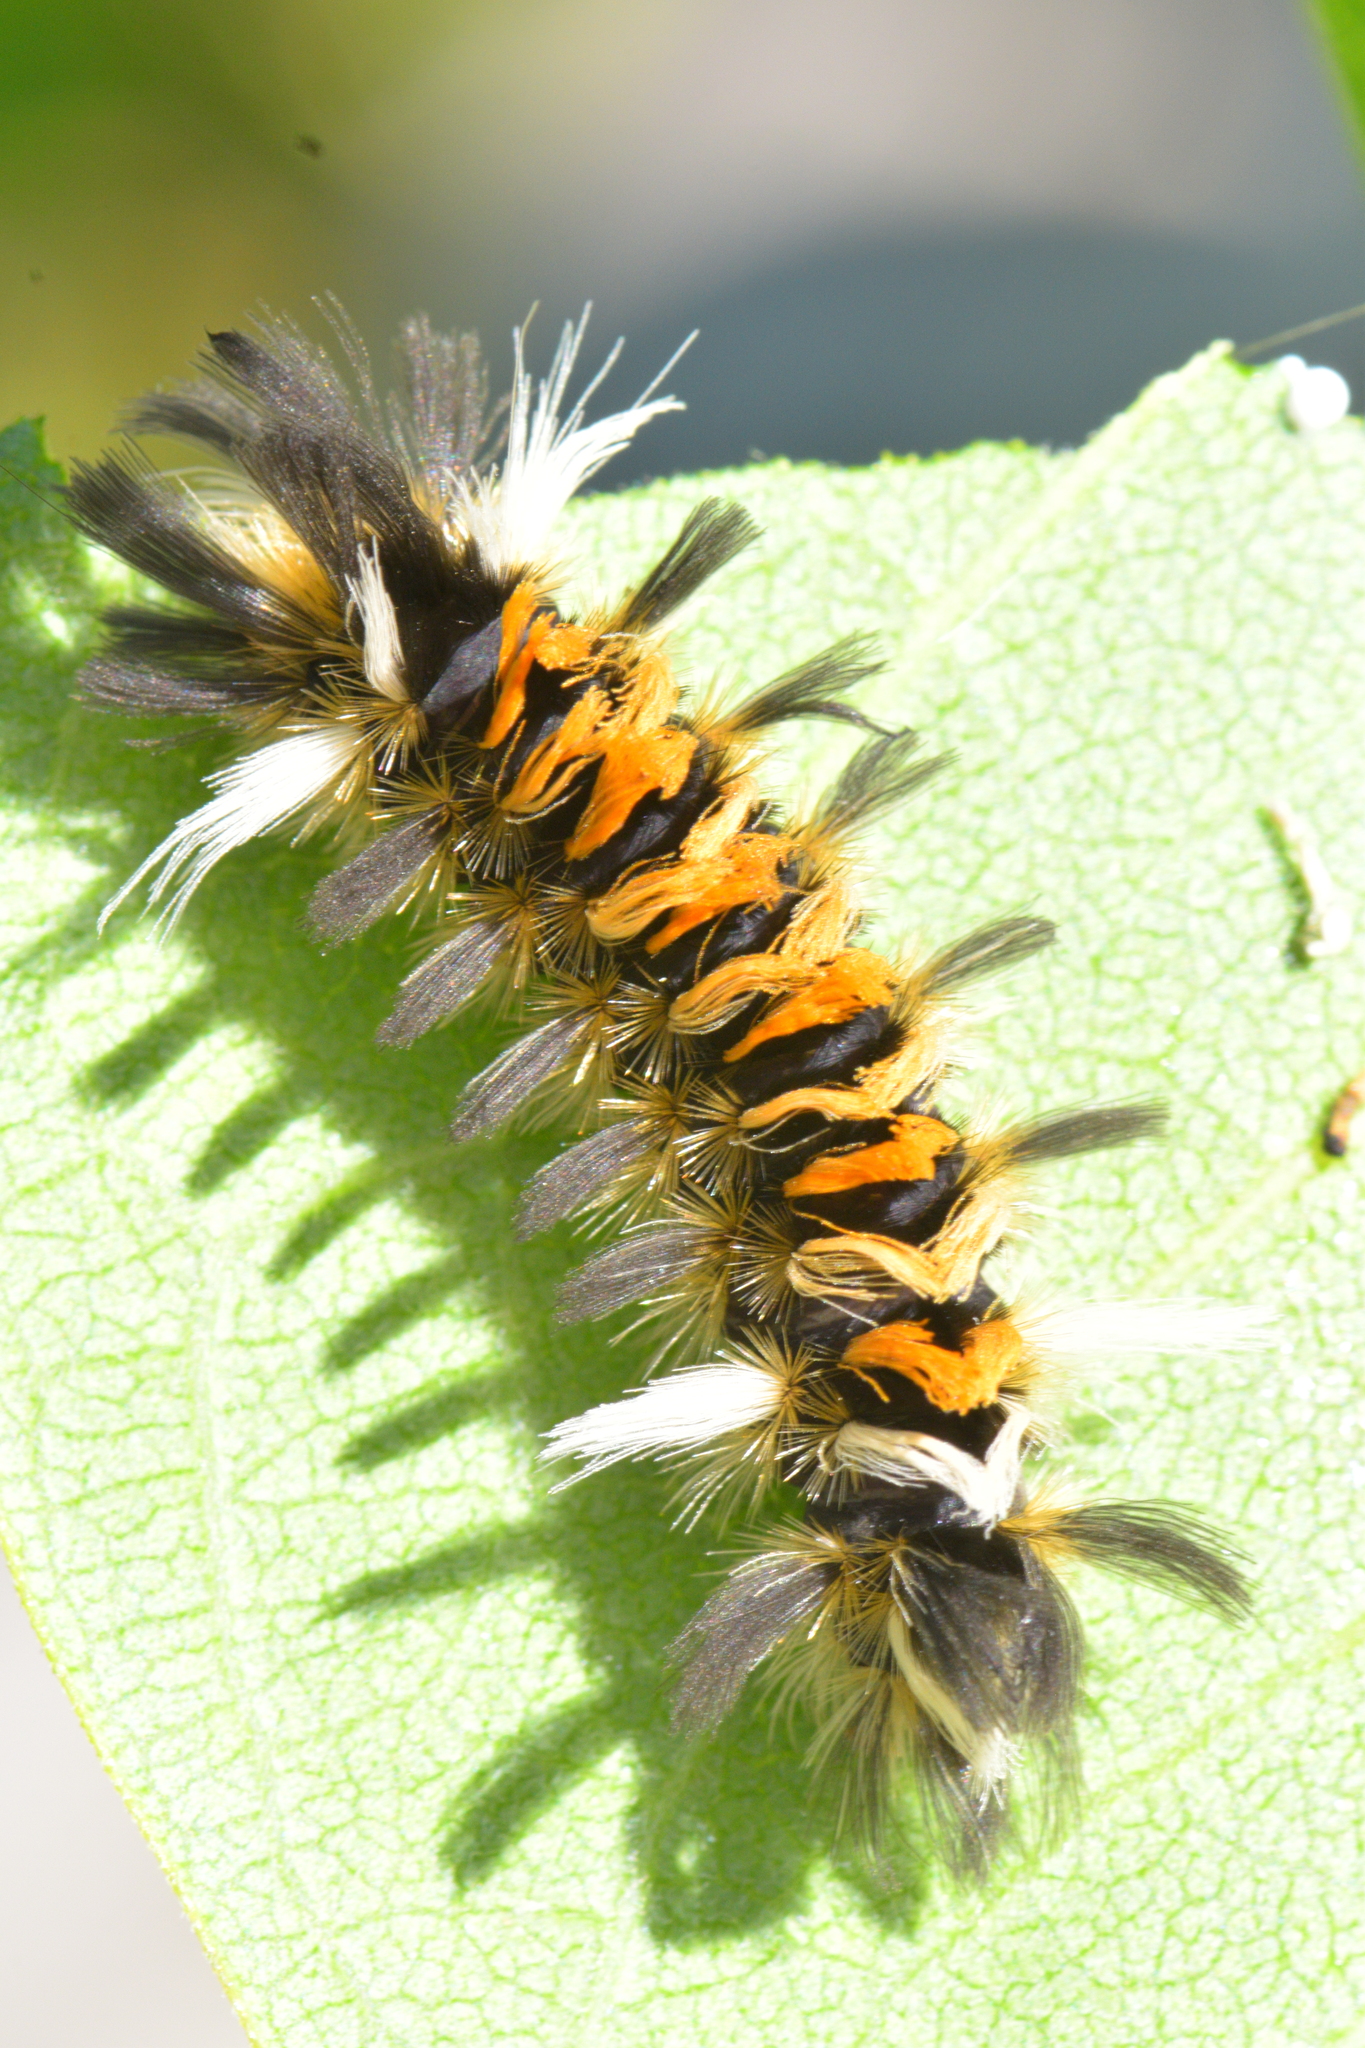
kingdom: Animalia
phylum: Arthropoda
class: Insecta
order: Lepidoptera
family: Erebidae
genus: Euchaetes
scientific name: Euchaetes egle
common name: Milkweed tussock moth
